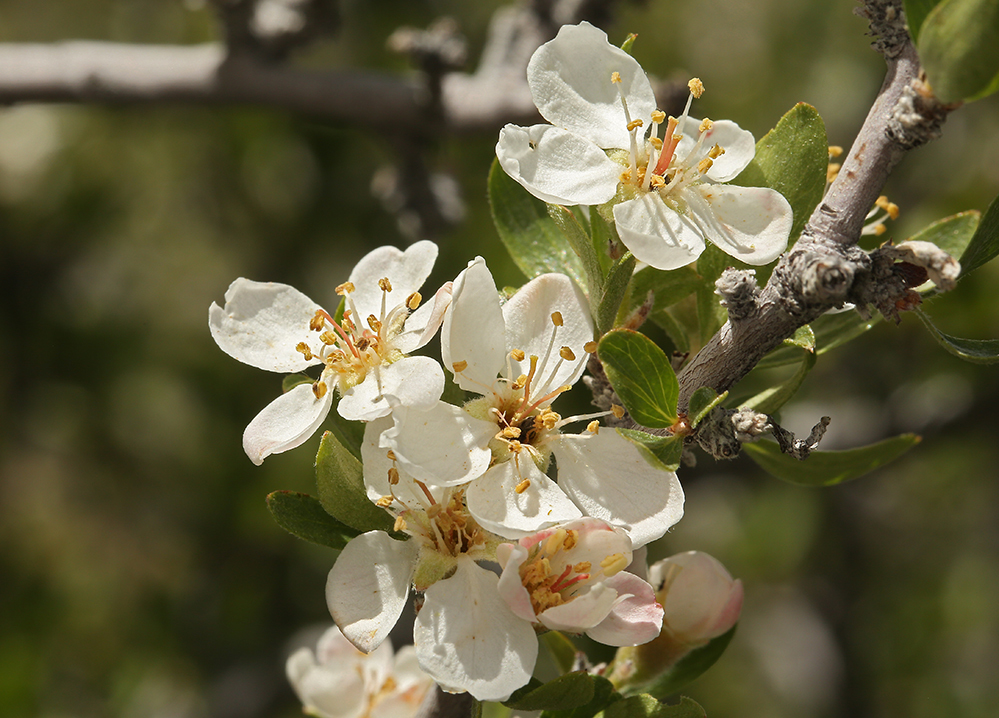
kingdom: Plantae
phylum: Tracheophyta
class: Magnoliopsida
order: Rosales
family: Rosaceae
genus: Amelanchier
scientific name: Amelanchier ramosissima
